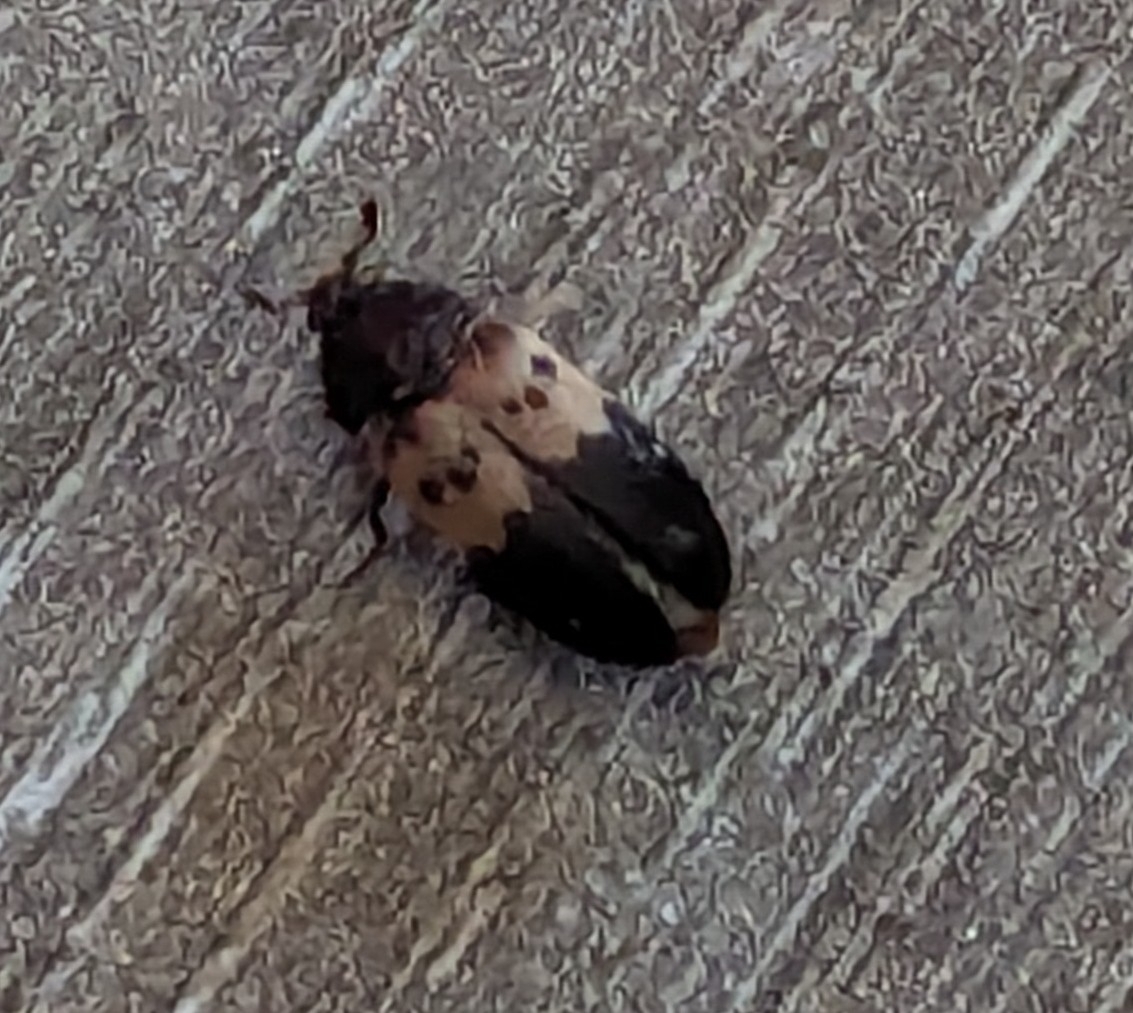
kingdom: Animalia
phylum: Arthropoda
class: Insecta
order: Coleoptera
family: Dermestidae
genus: Dermestes
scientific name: Dermestes lardarius
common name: Larder beetle
